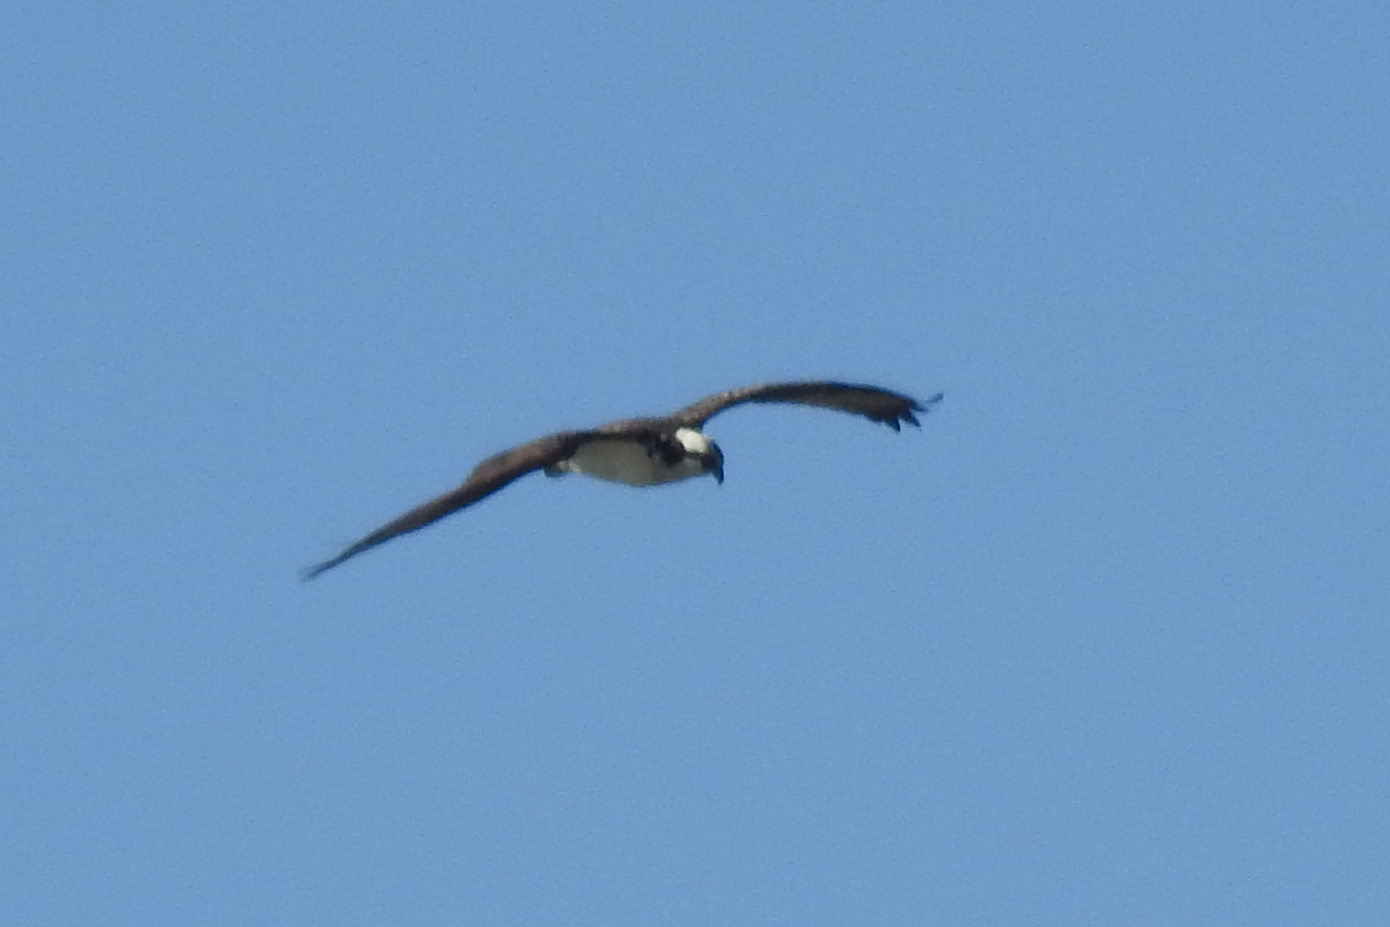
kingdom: Animalia
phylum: Chordata
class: Aves
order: Accipitriformes
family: Pandionidae
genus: Pandion
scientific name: Pandion haliaetus
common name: Osprey
